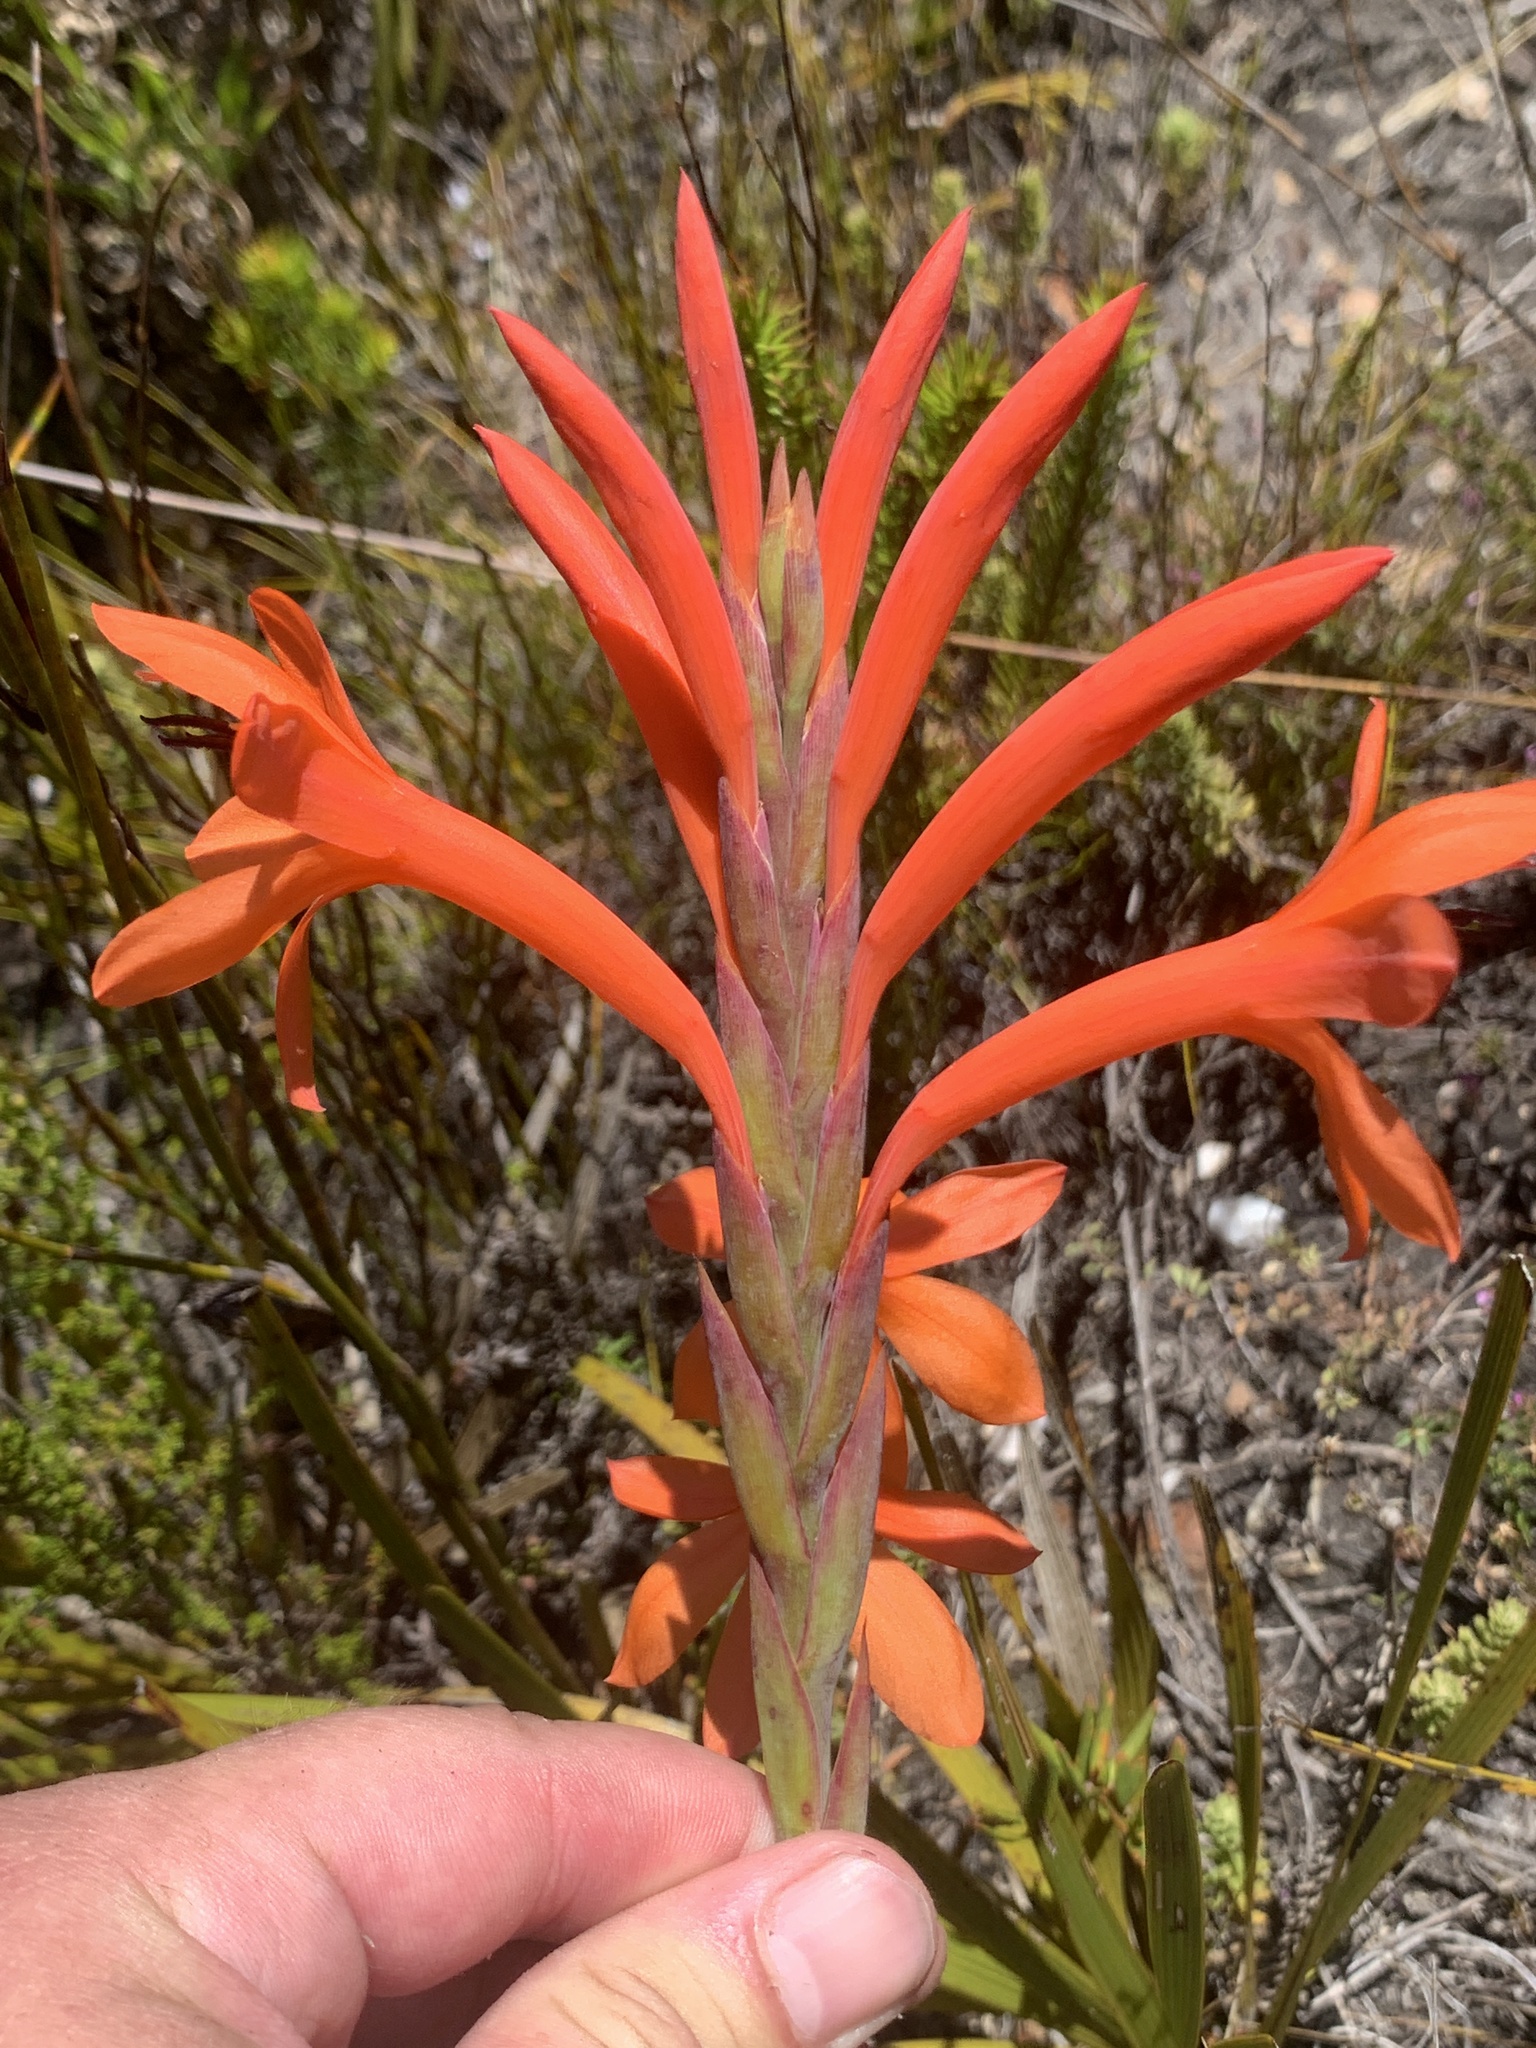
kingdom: Plantae
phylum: Tracheophyta
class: Liliopsida
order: Asparagales
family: Iridaceae
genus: Watsonia
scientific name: Watsonia schlechteri
